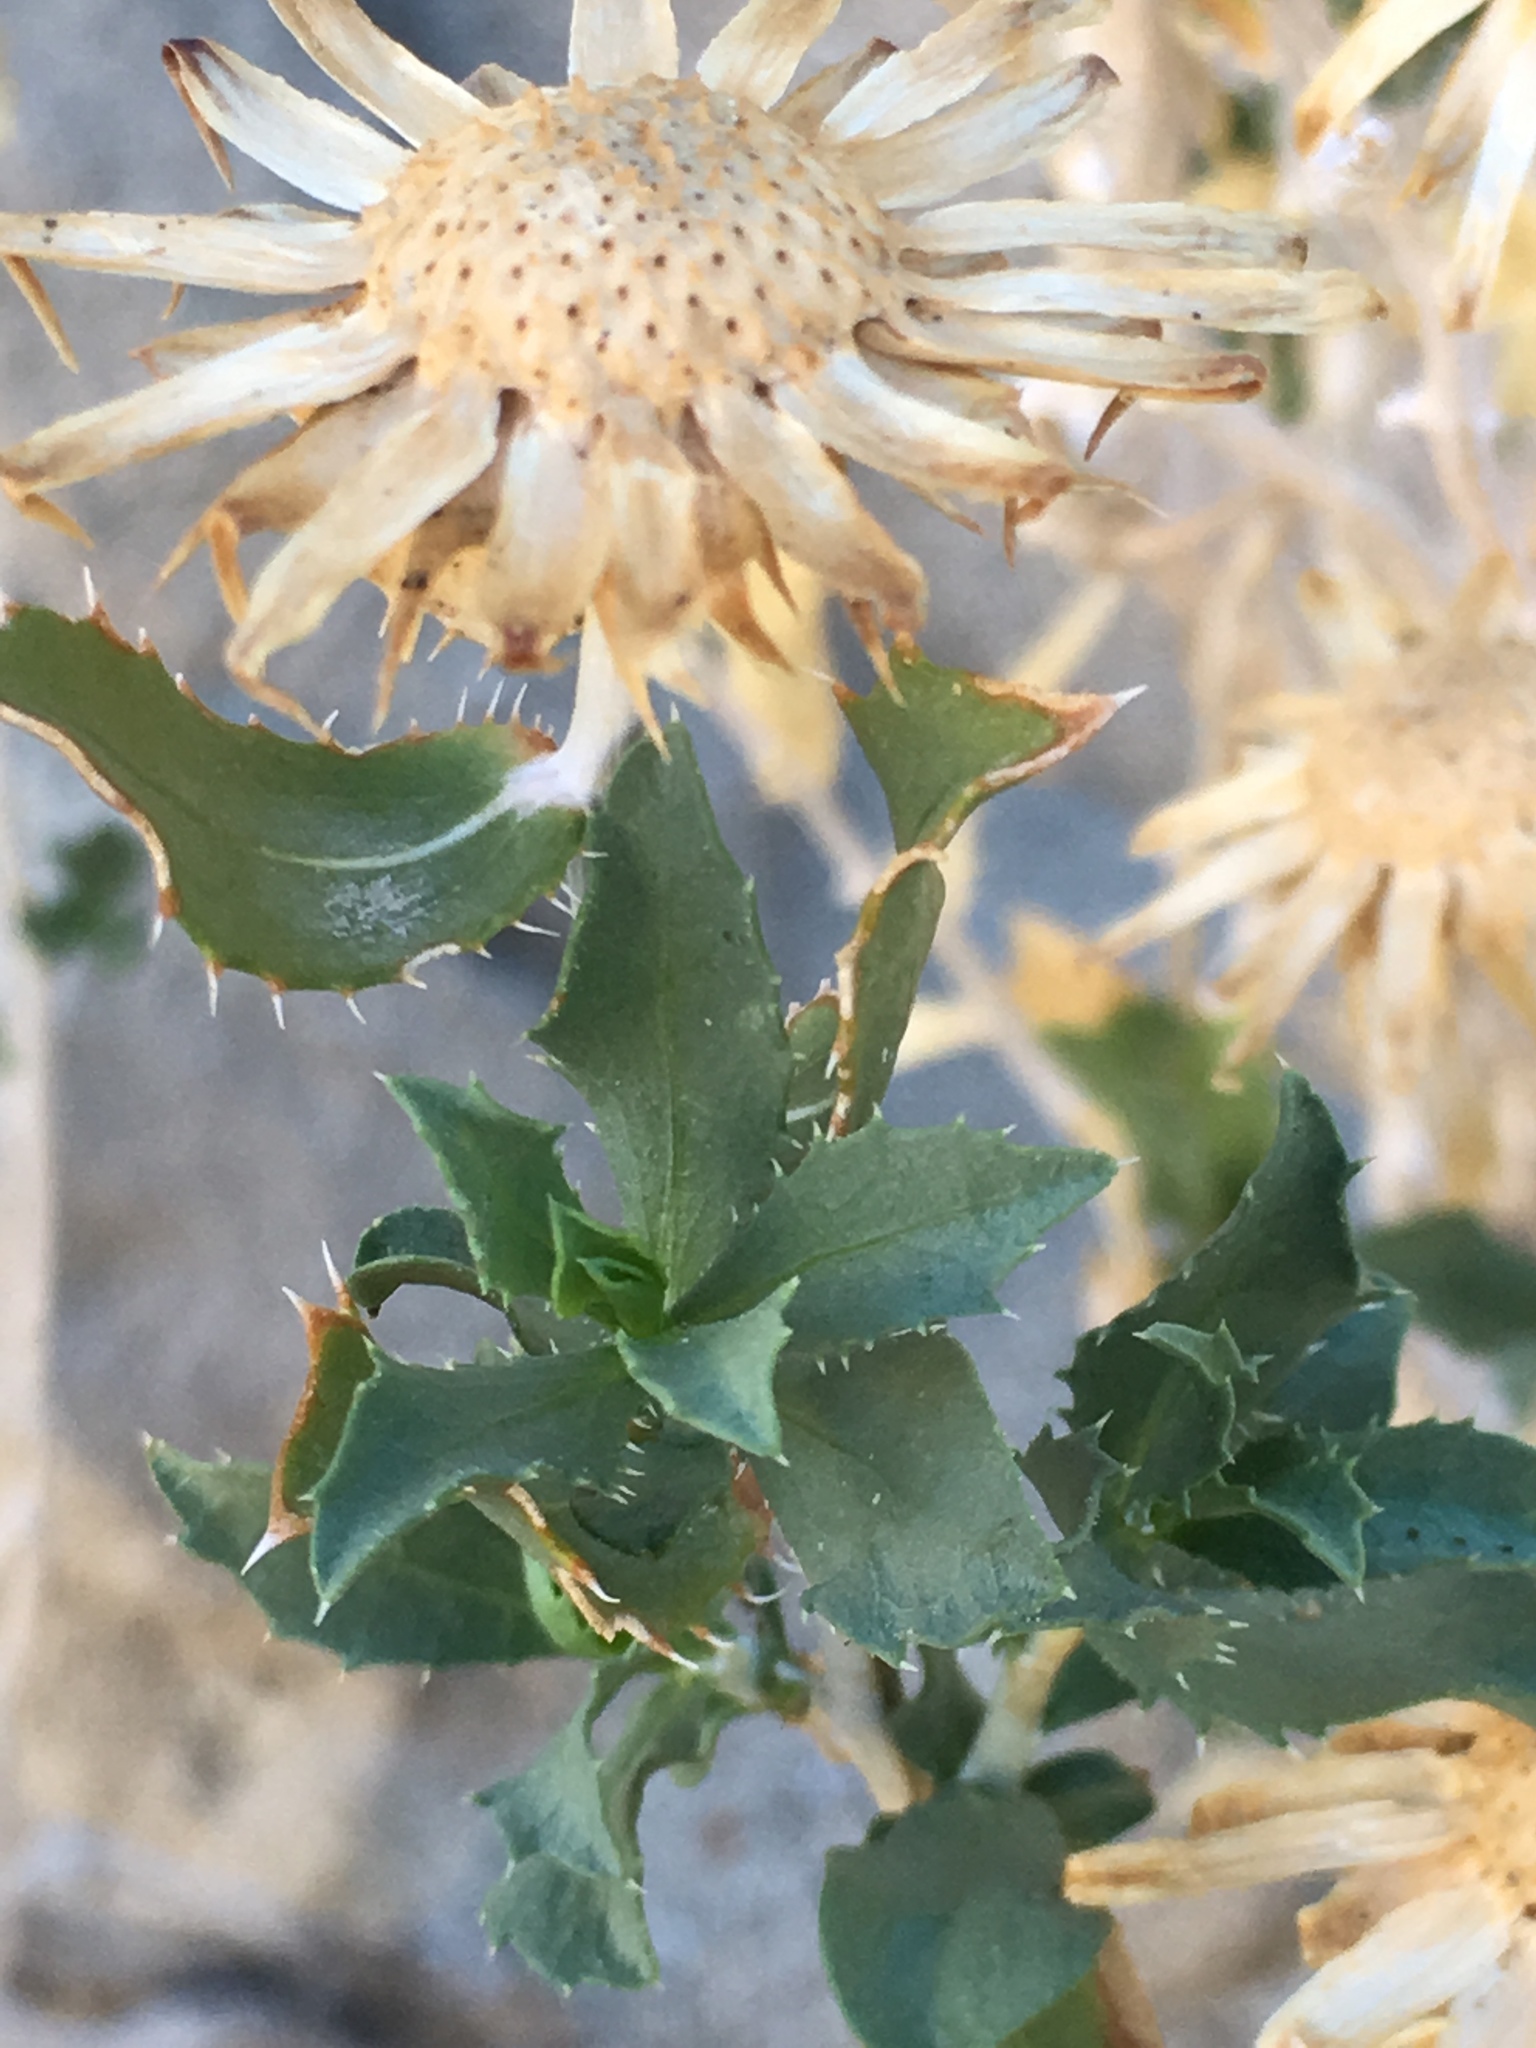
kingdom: Plantae
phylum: Tracheophyta
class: Magnoliopsida
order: Asterales
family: Asteraceae
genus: Xylorhiza
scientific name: Xylorhiza orcuttii
